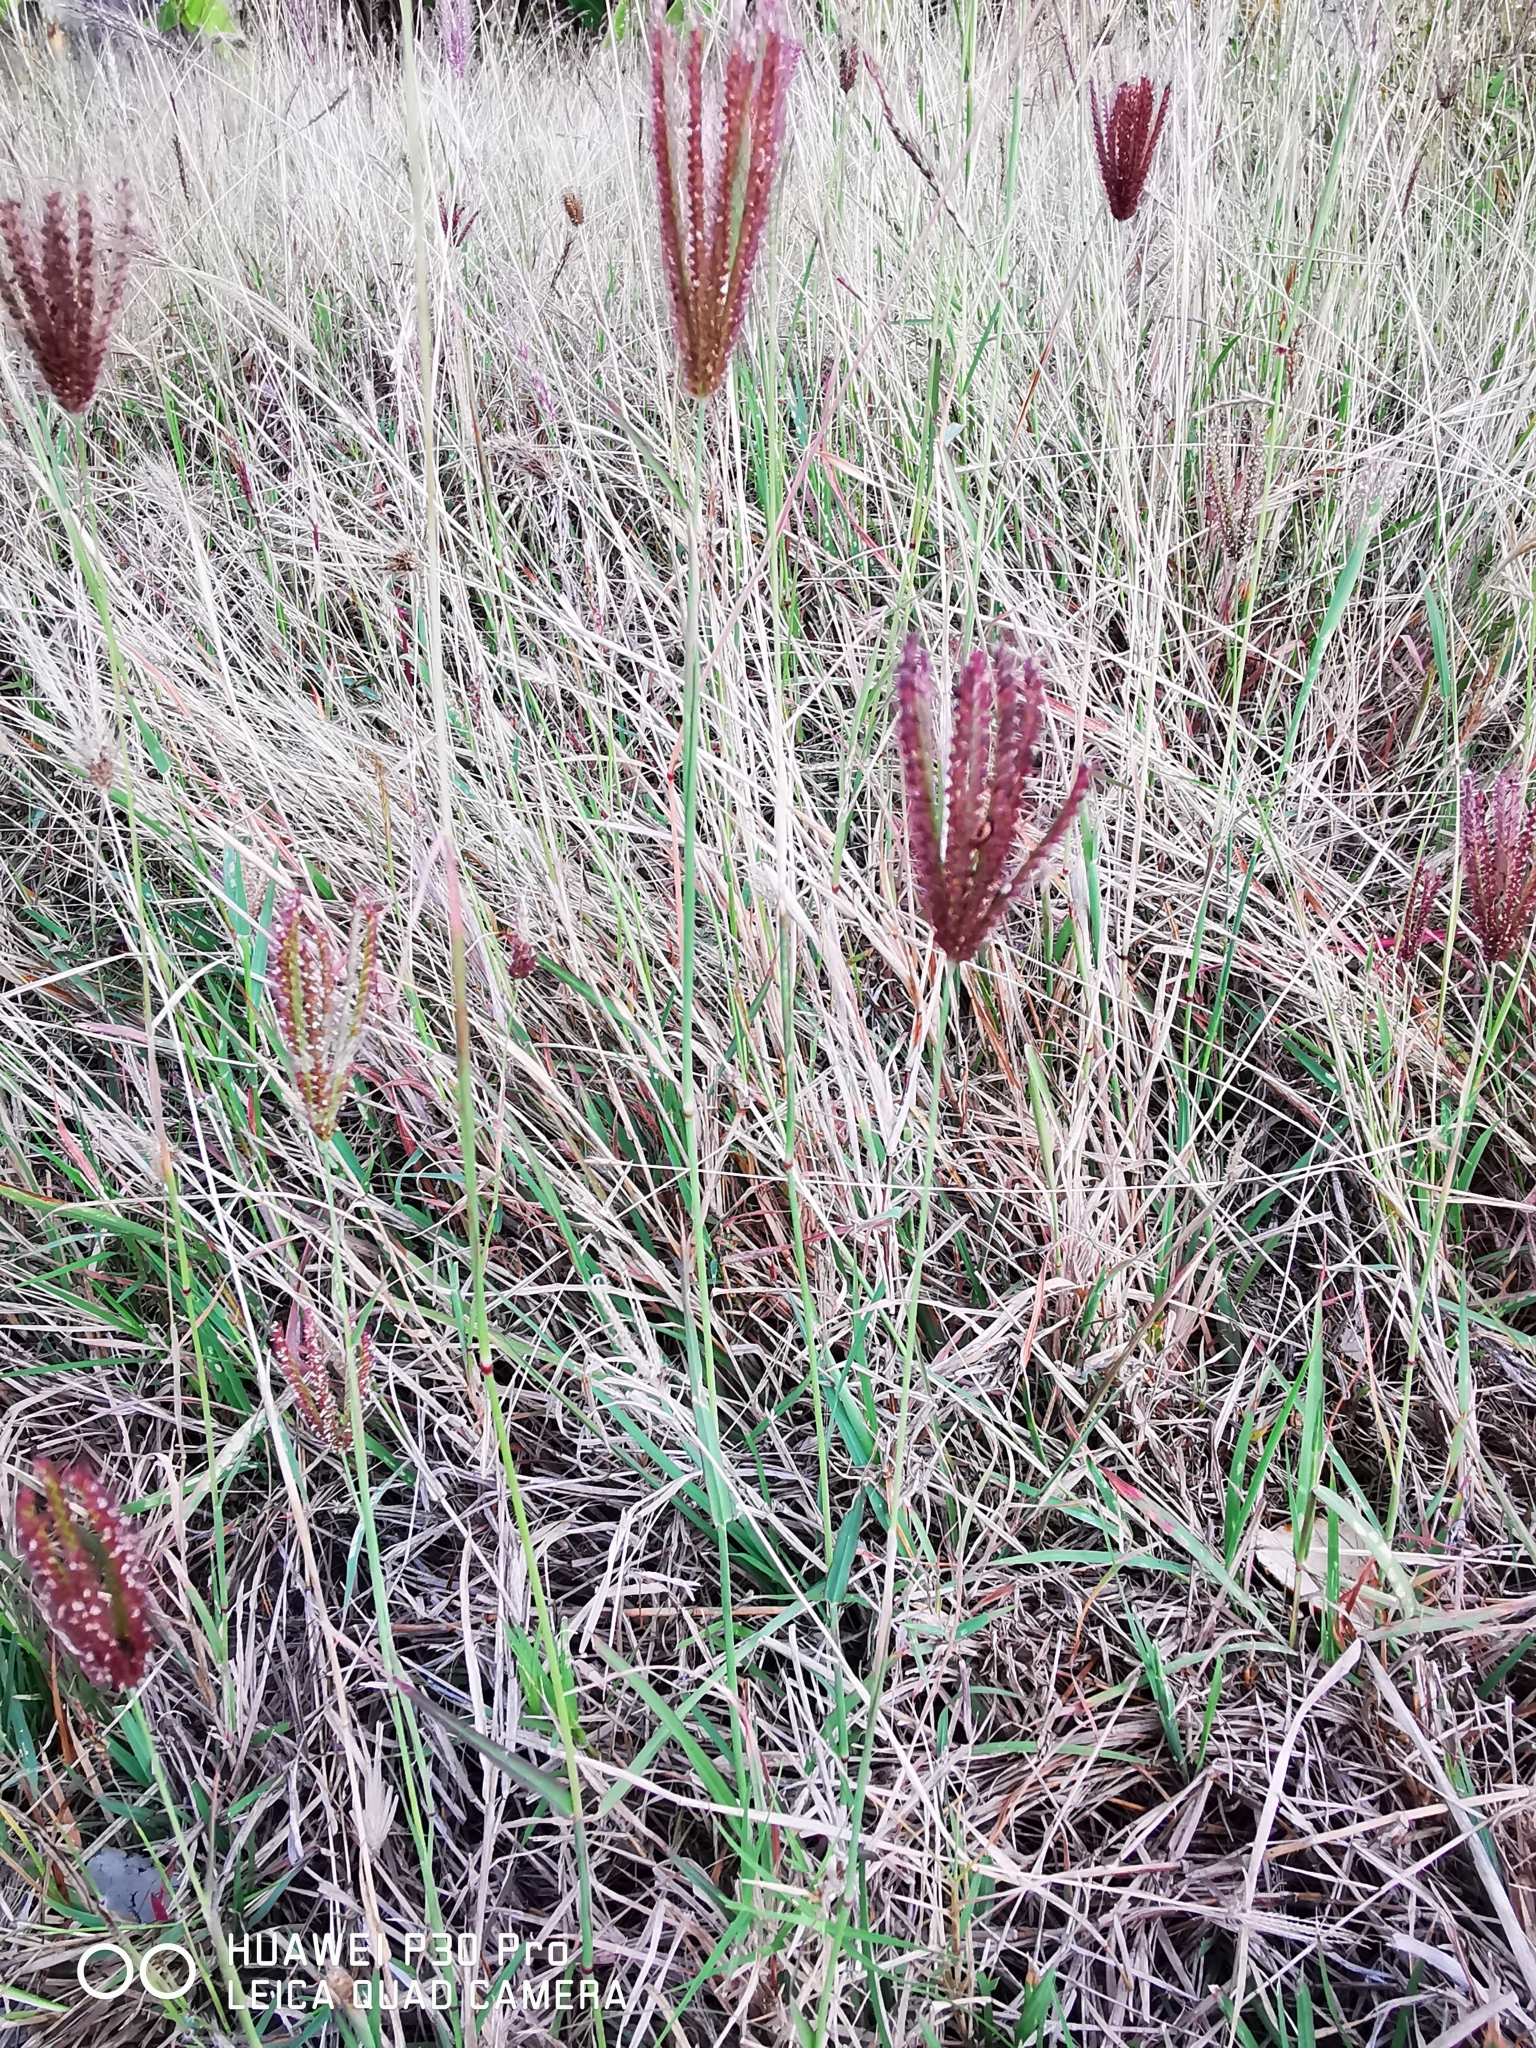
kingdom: Plantae
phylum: Tracheophyta
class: Liliopsida
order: Poales
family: Poaceae
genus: Chloris
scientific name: Chloris barbata
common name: Swollen fingergrass
